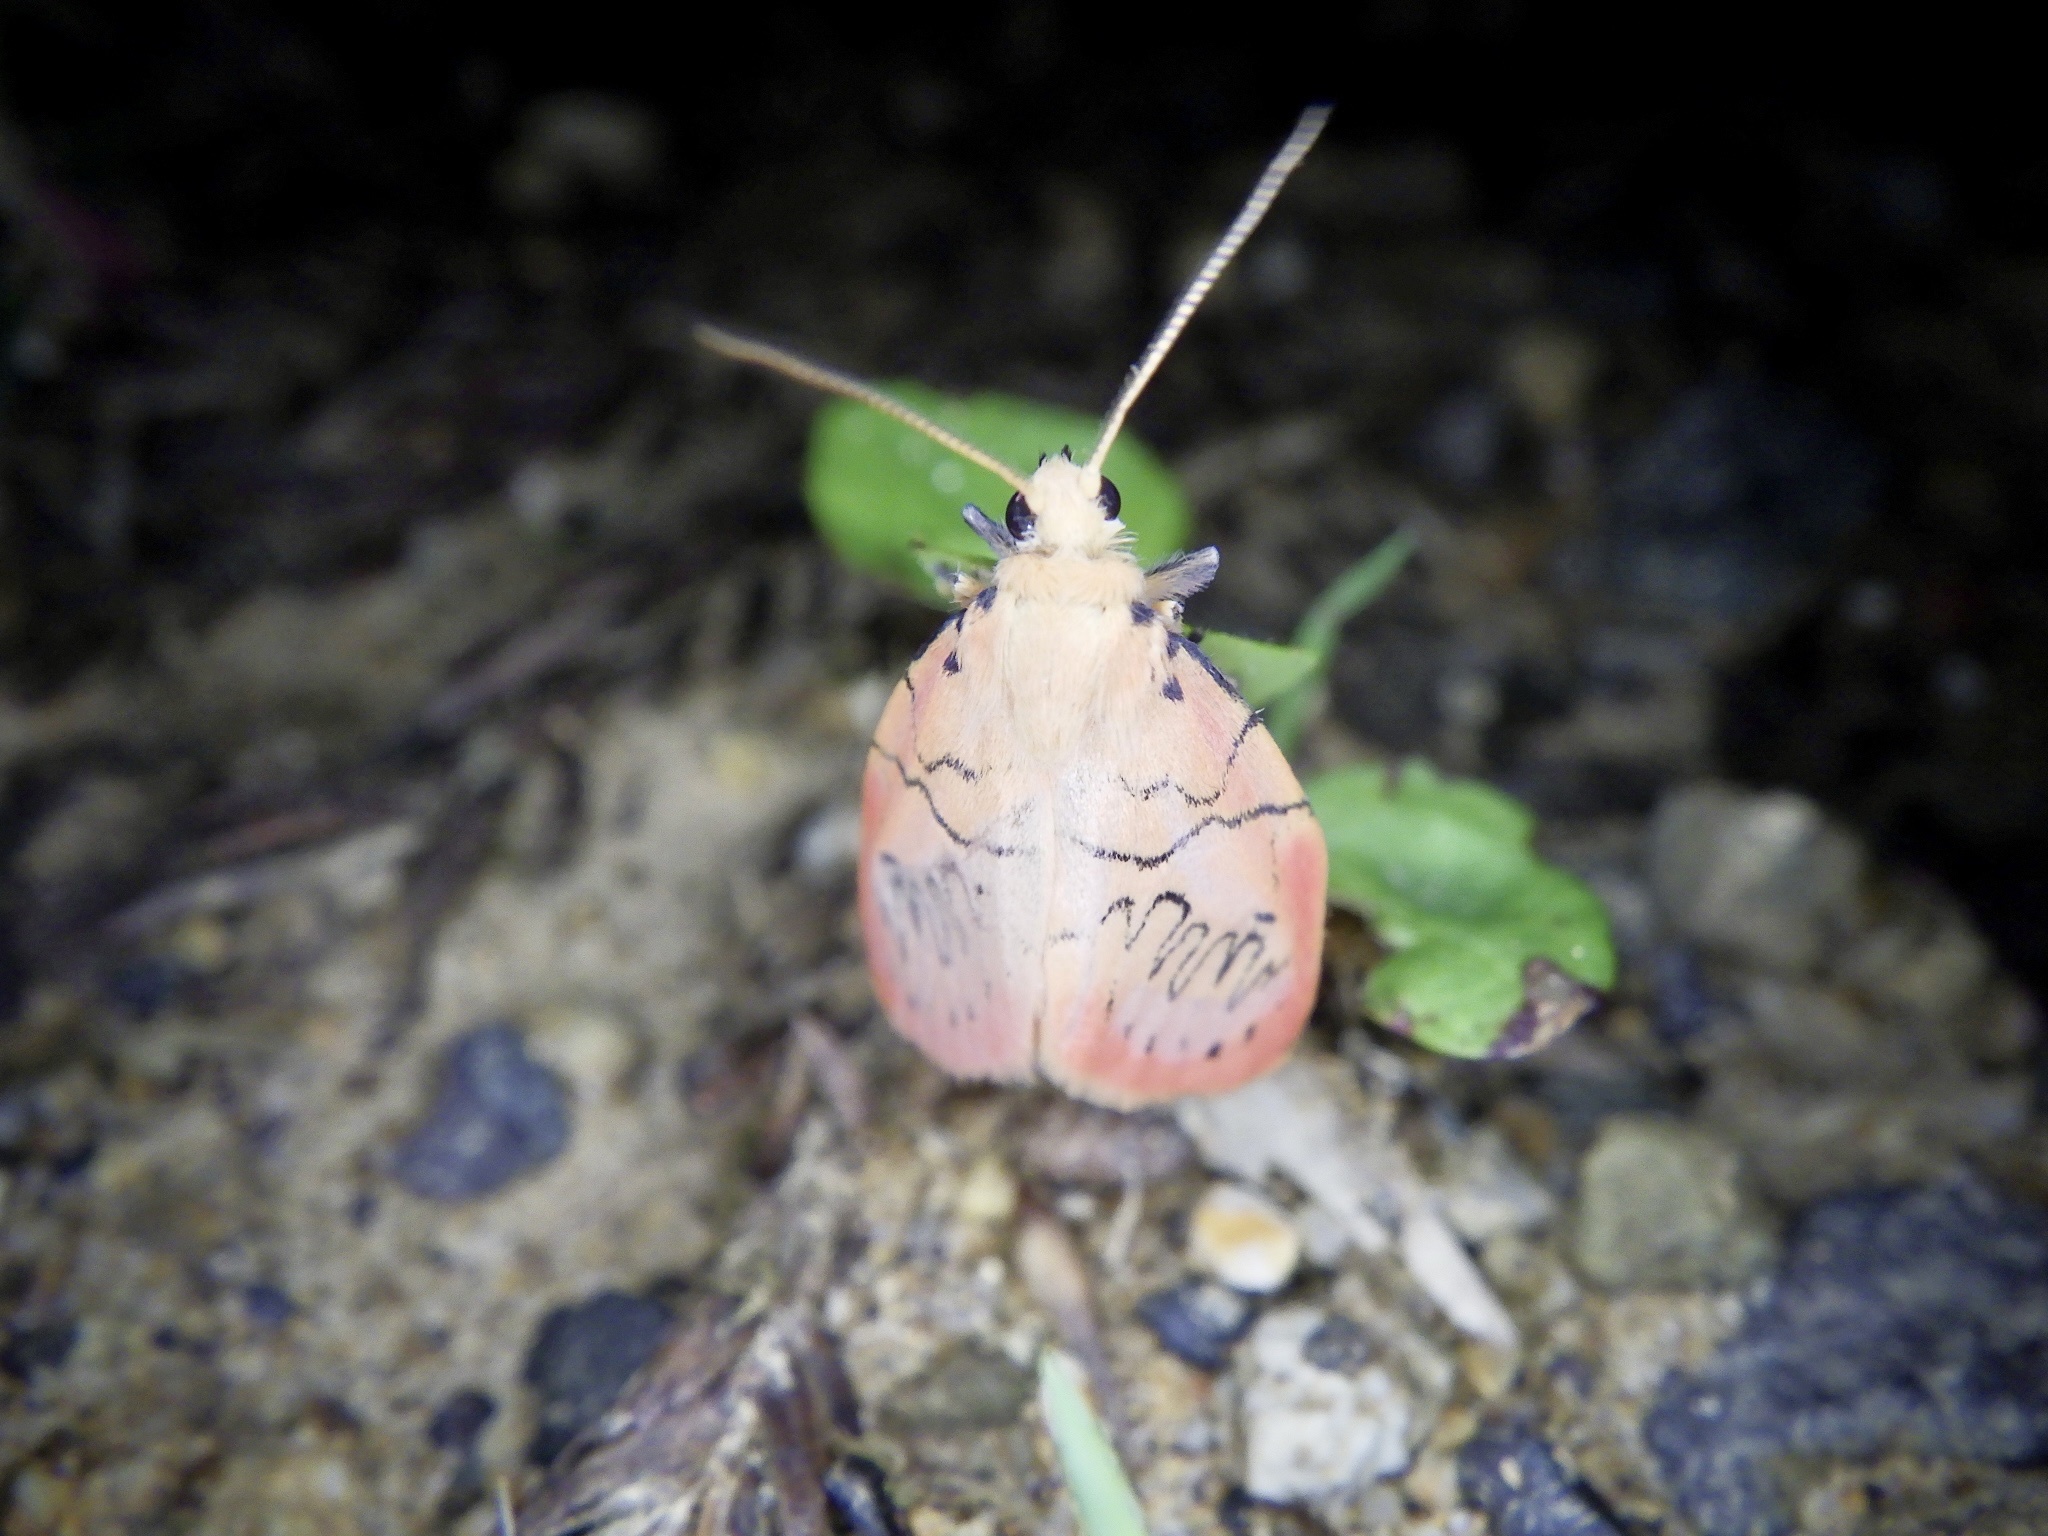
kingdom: Animalia
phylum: Arthropoda
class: Insecta
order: Lepidoptera
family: Erebidae
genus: Miltochrista
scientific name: Miltochrista miniata
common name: Rosy footman
